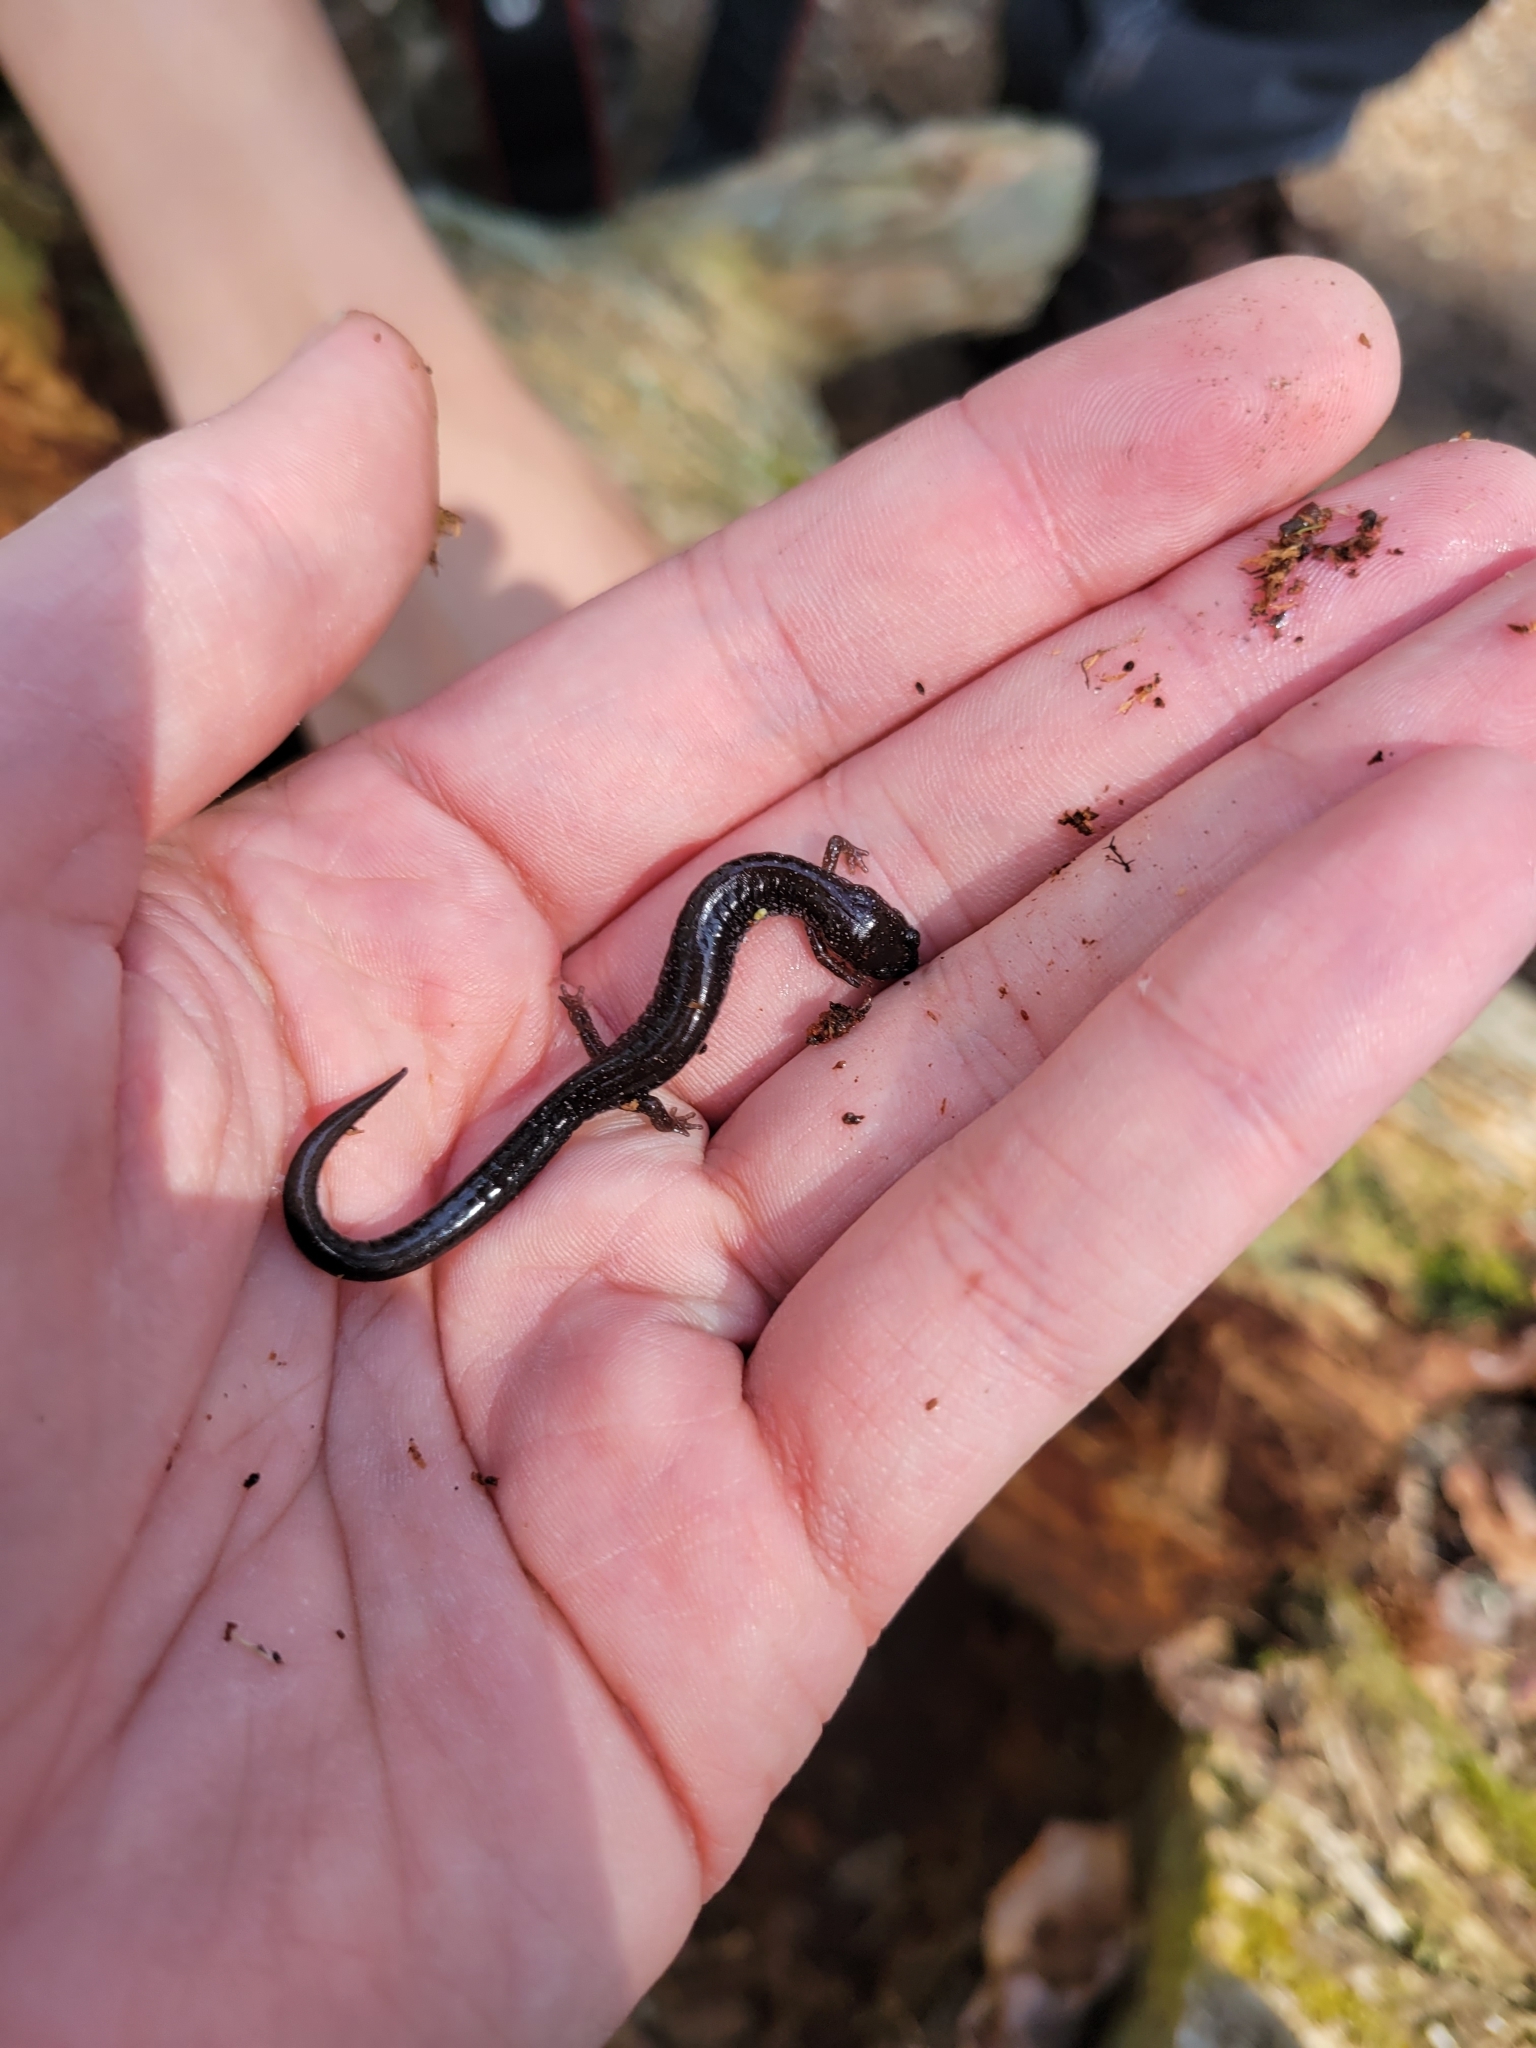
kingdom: Animalia
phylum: Chordata
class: Amphibia
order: Caudata
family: Plethodontidae
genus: Plethodon
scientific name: Plethodon cinereus
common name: Redback salamander
